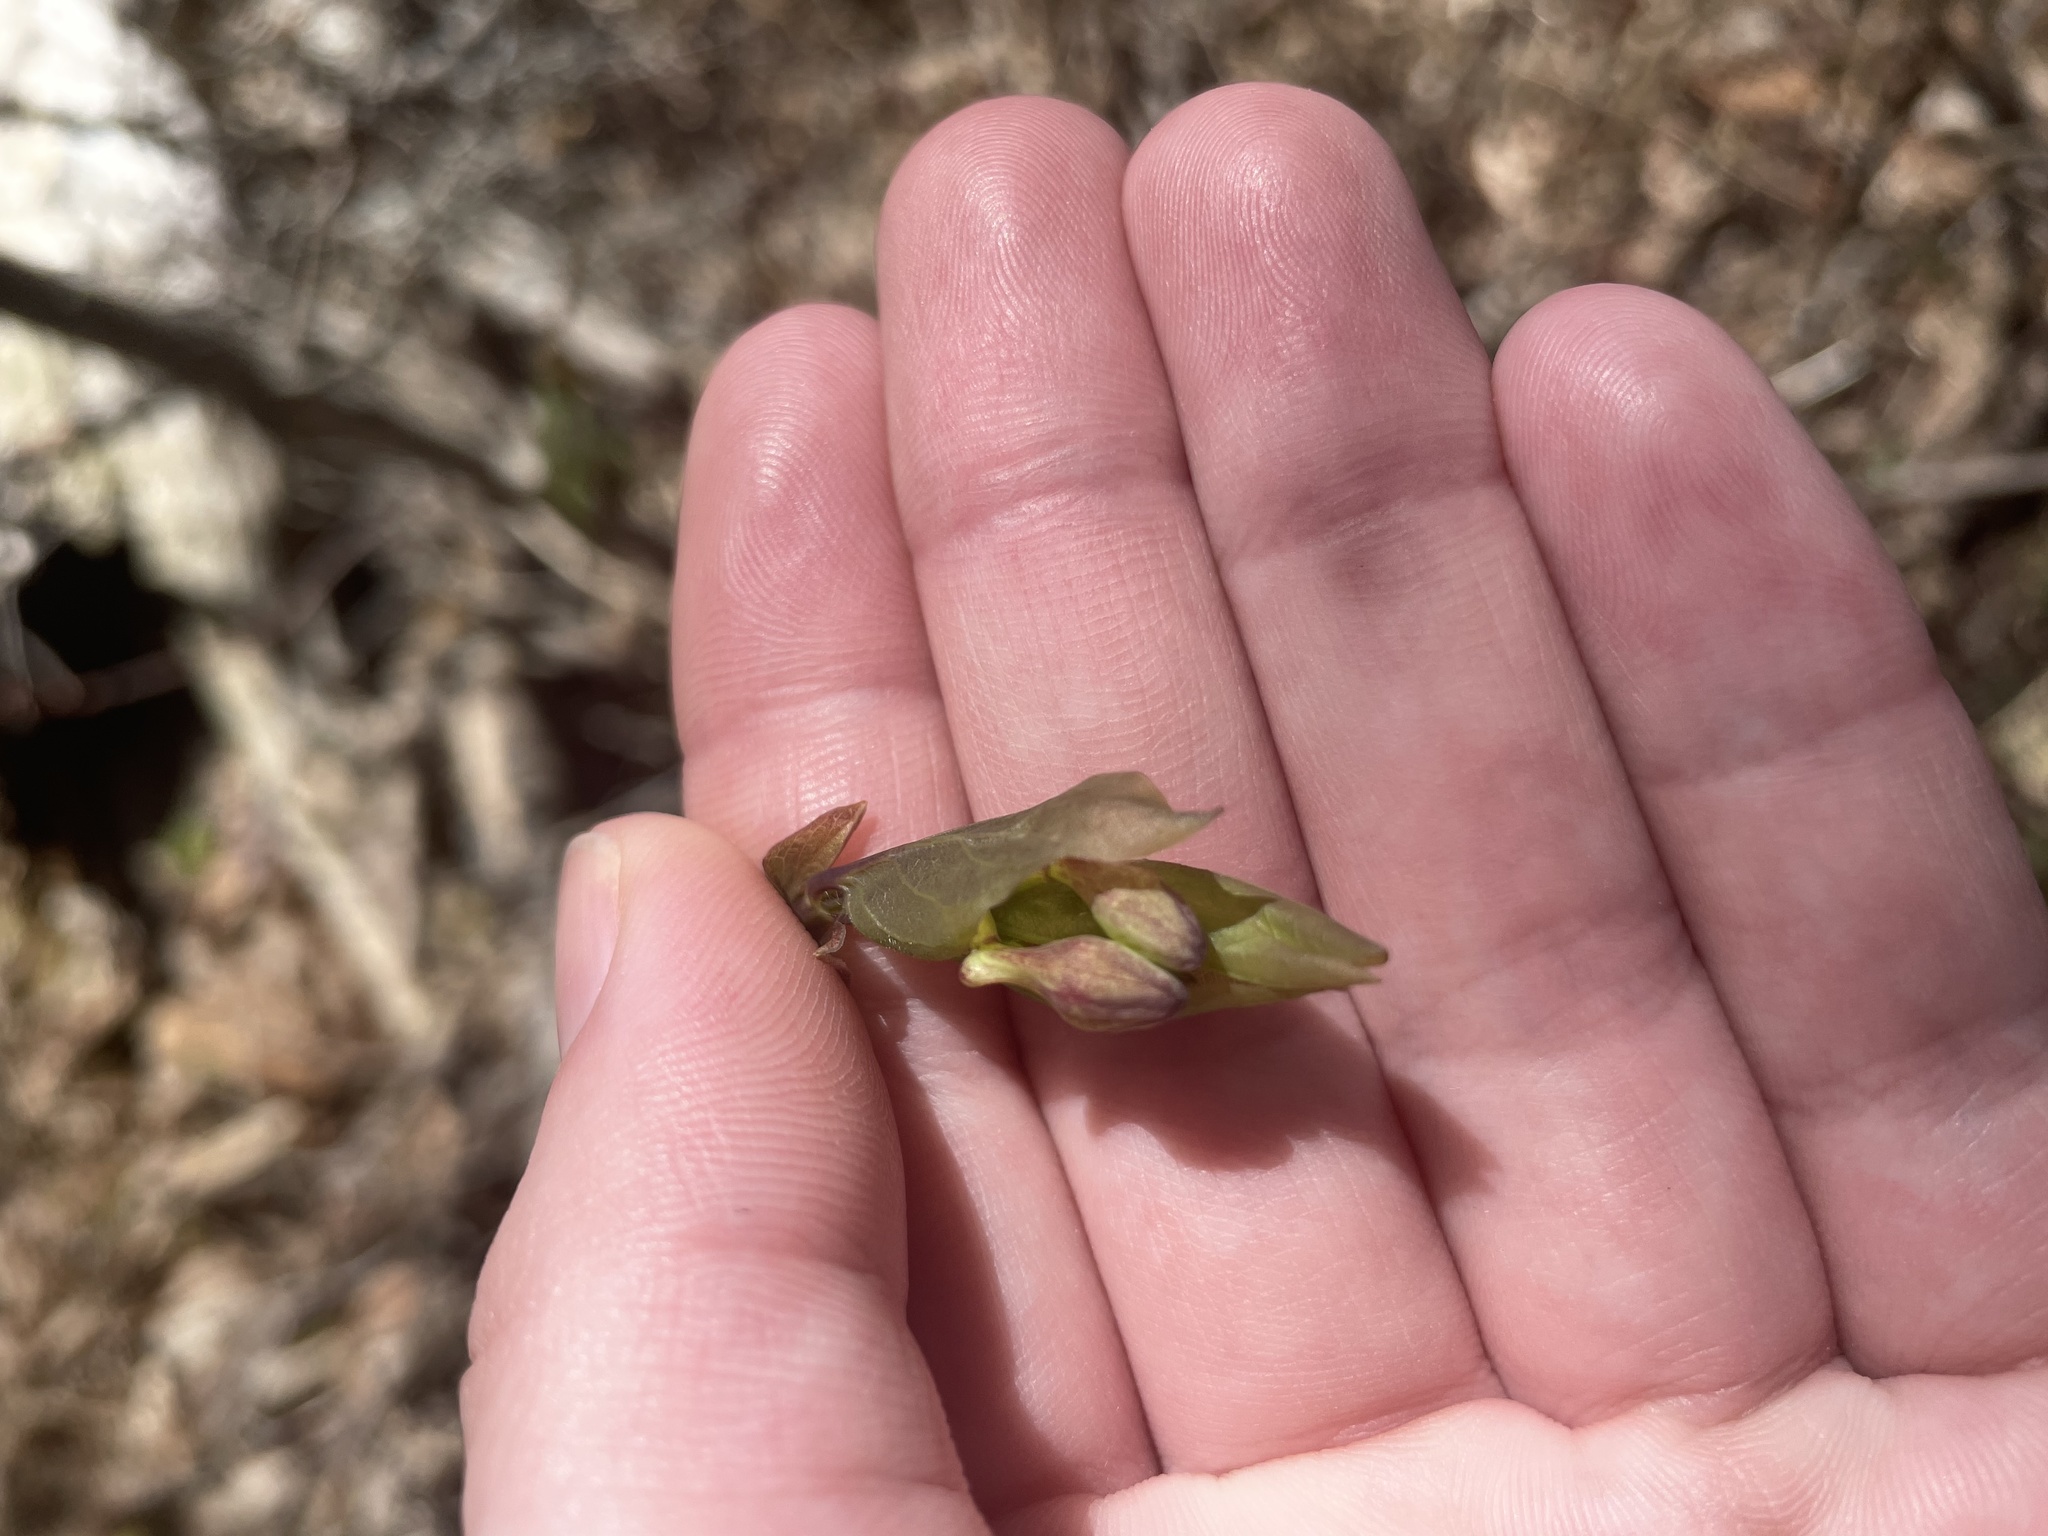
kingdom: Plantae
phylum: Tracheophyta
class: Magnoliopsida
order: Dipsacales
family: Caprifoliaceae
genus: Lonicera
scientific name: Lonicera canadensis
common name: American fly-honeysuckle
